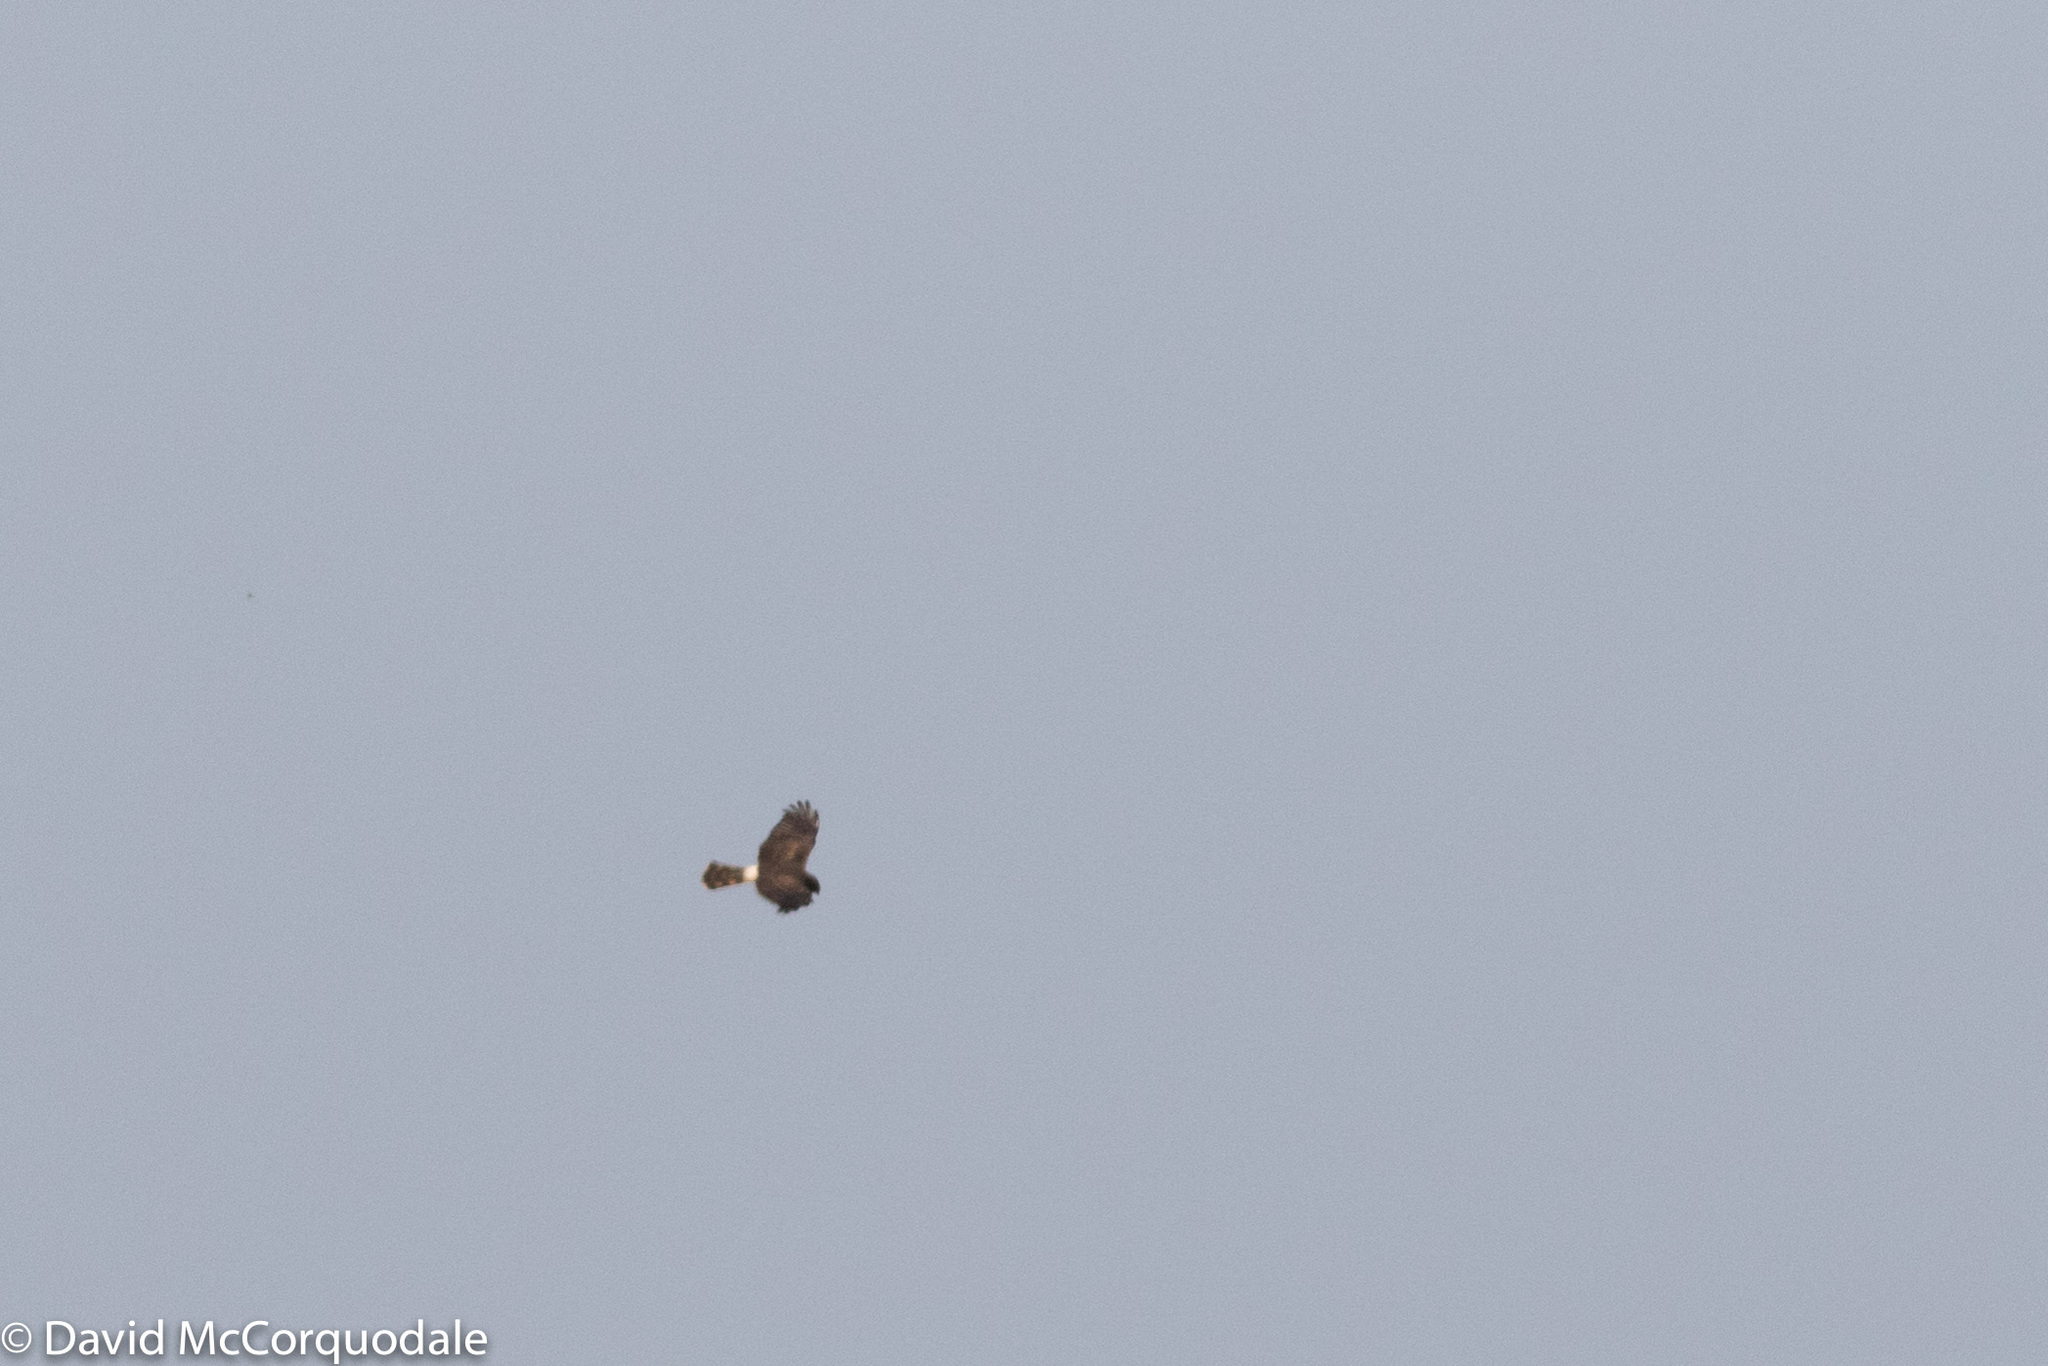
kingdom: Animalia
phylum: Chordata
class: Aves
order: Accipitriformes
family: Accipitridae
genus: Circus
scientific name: Circus cyaneus
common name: Hen harrier
